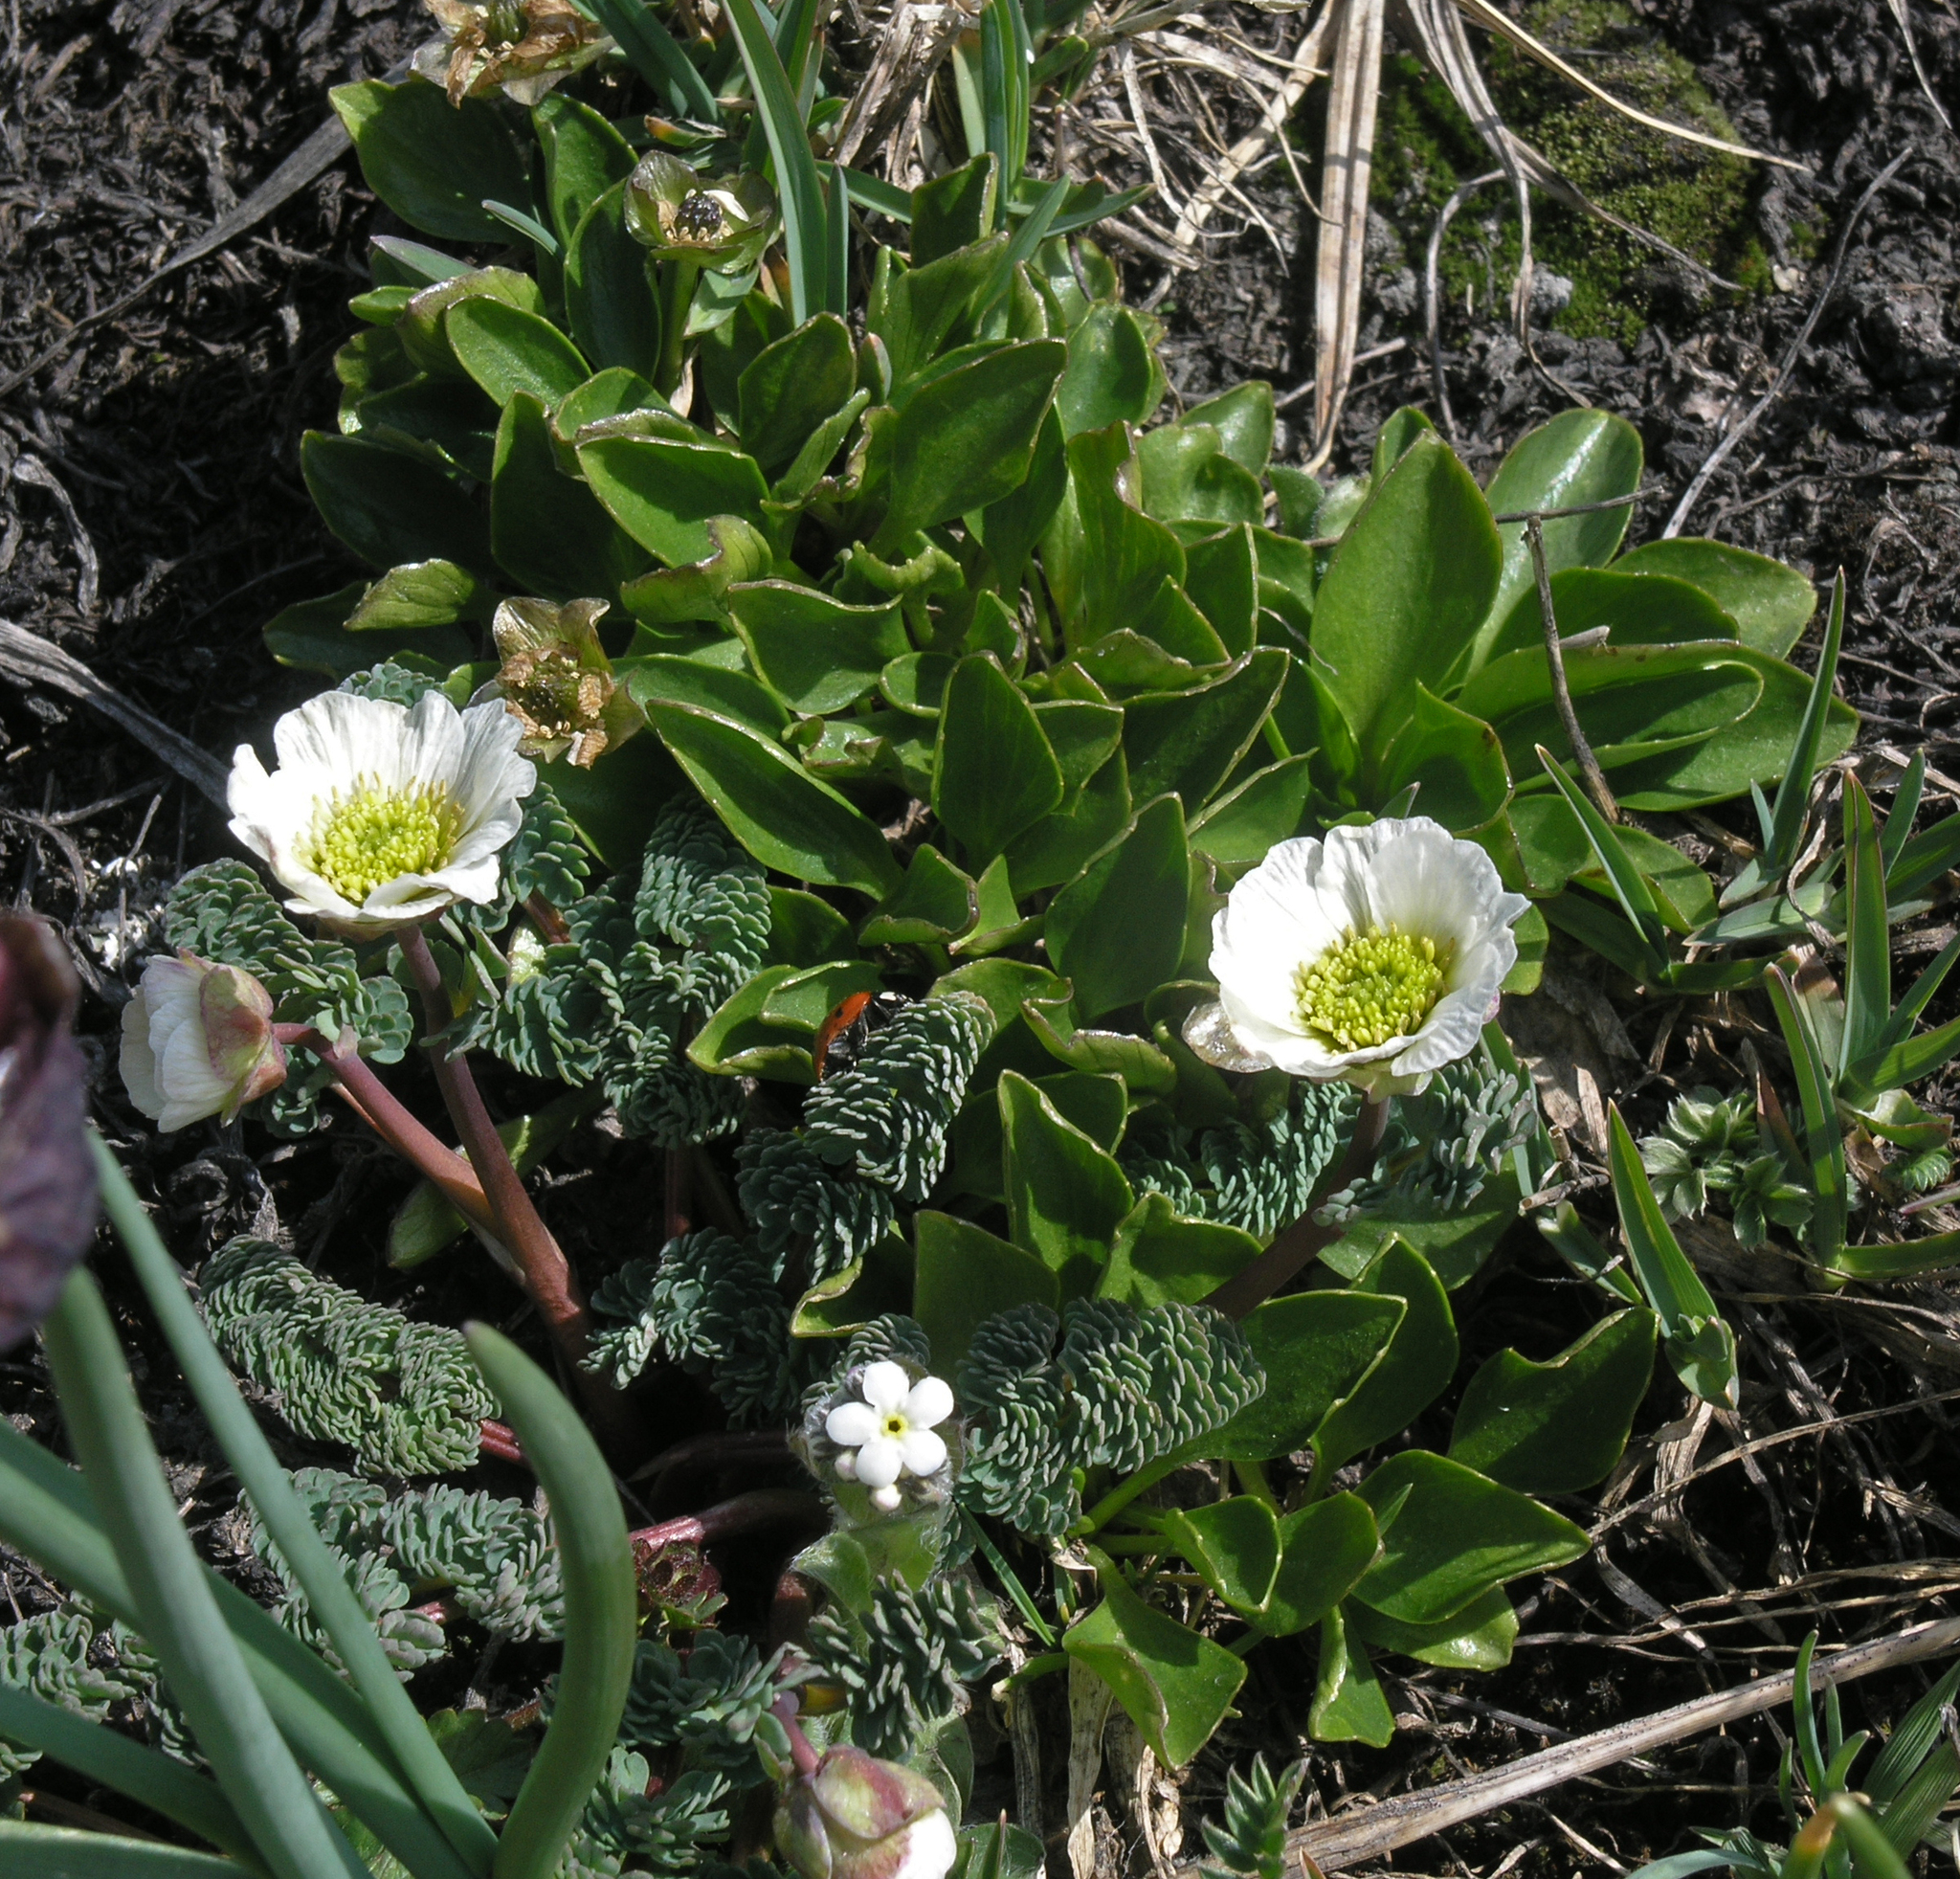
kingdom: Plantae
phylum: Tracheophyta
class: Magnoliopsida
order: Boraginales
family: Boraginaceae
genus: Eritrichium
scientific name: Eritrichium villosum
